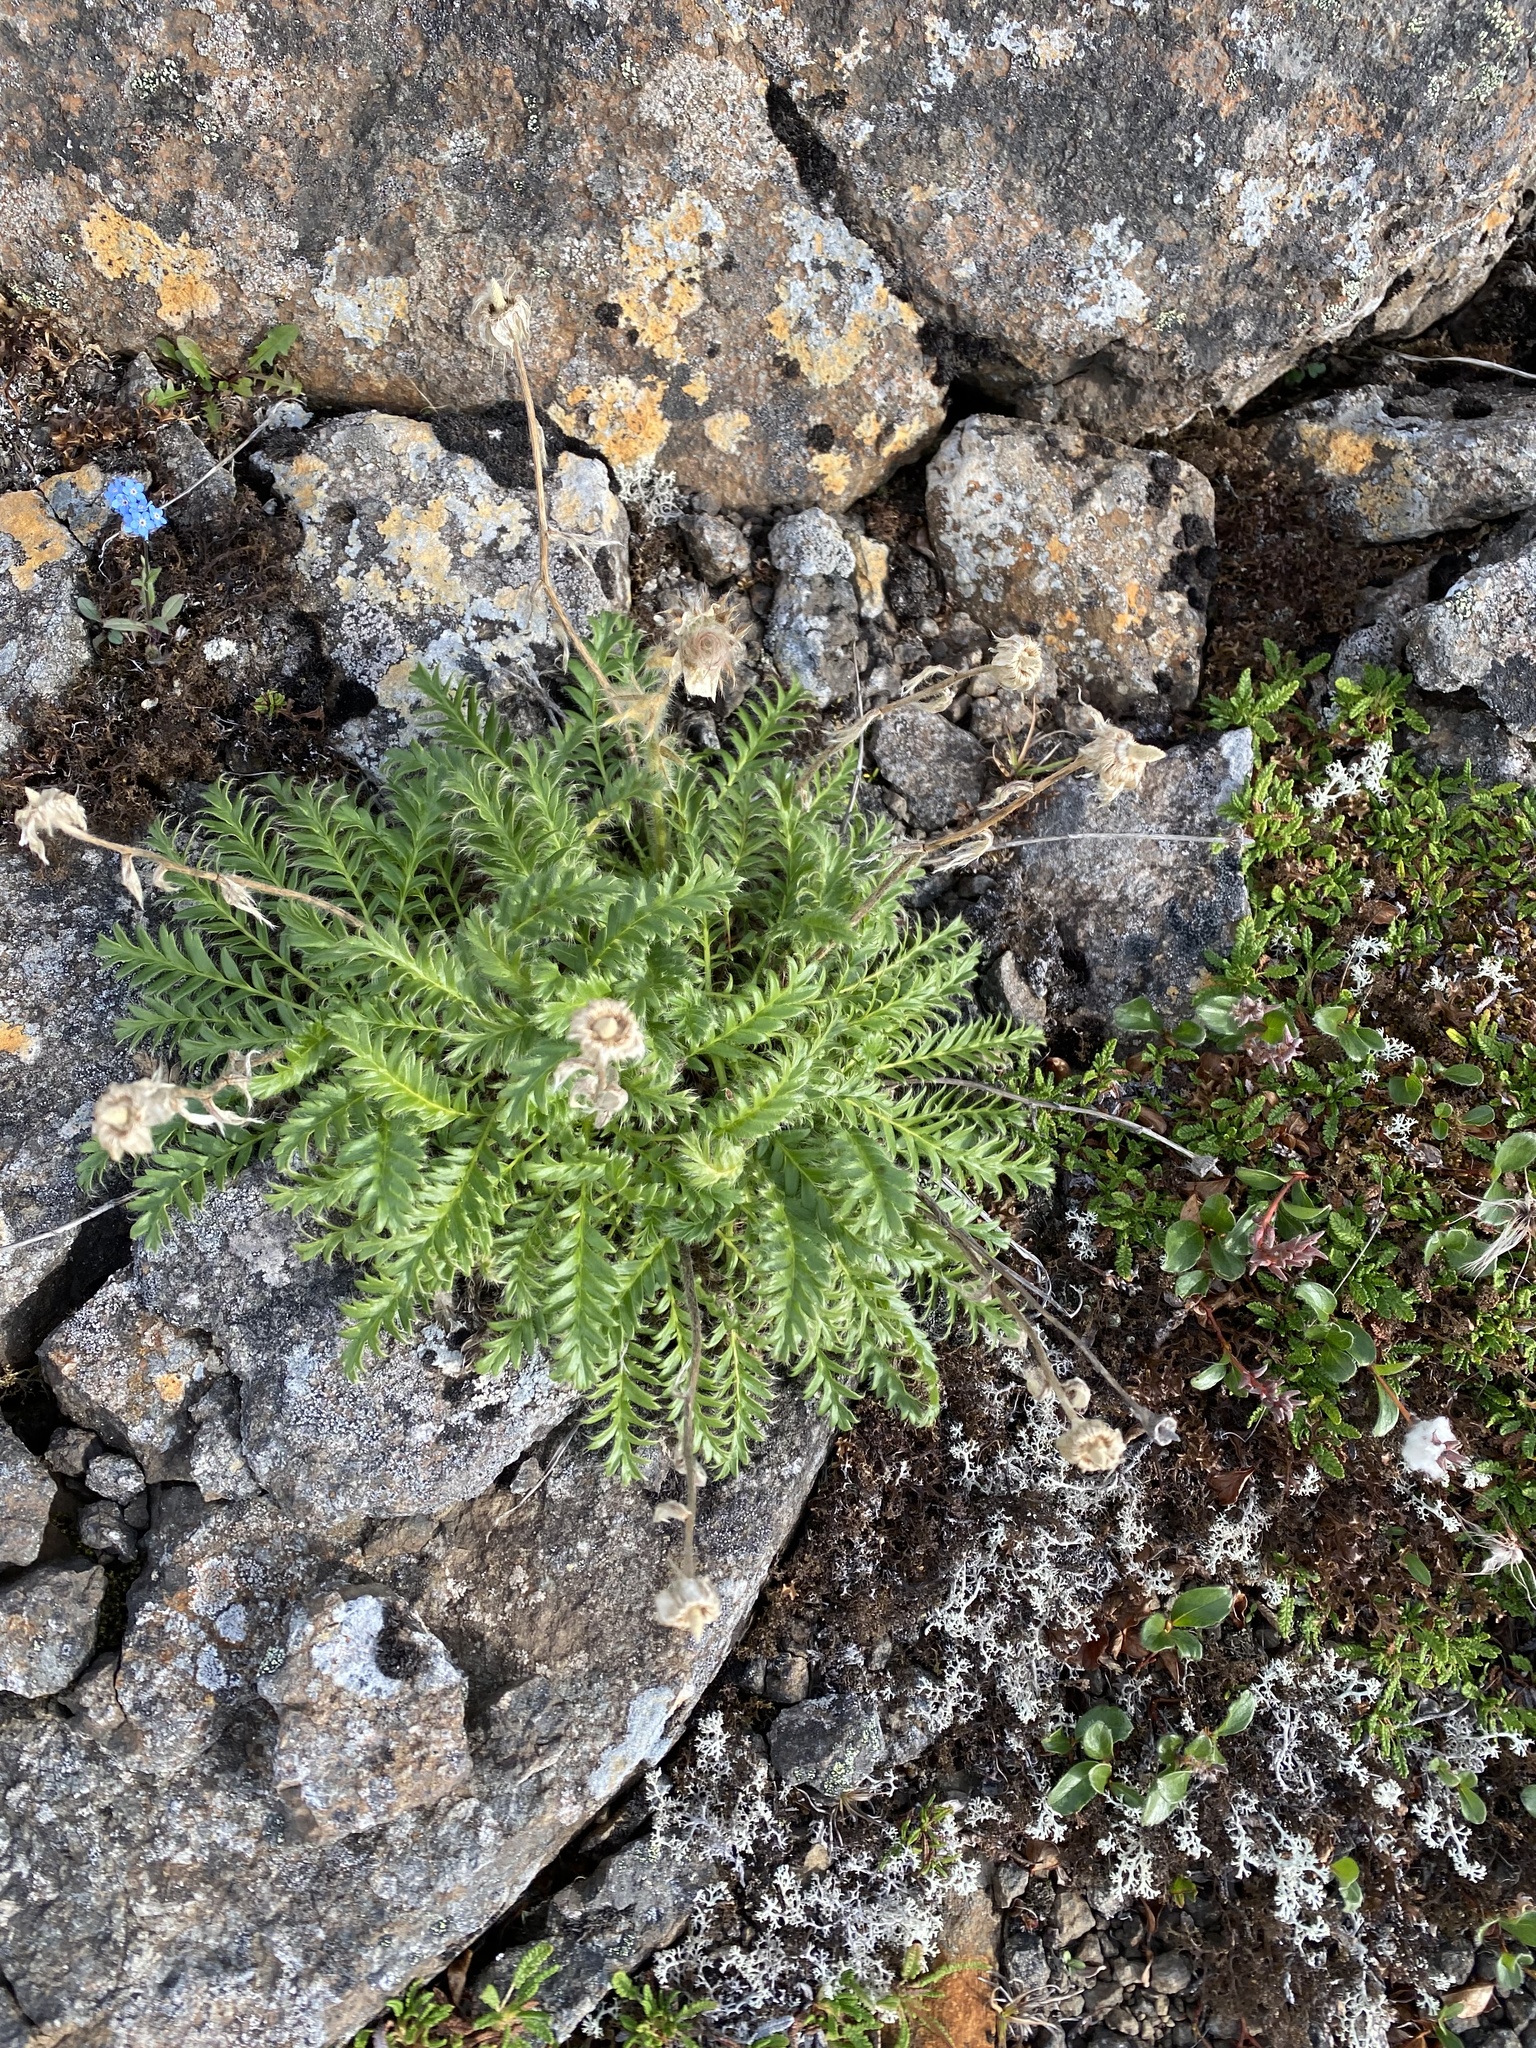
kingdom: Plantae
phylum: Tracheophyta
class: Magnoliopsida
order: Rosales
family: Rosaceae
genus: Geum
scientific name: Geum glaciale
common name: Glacier avens
